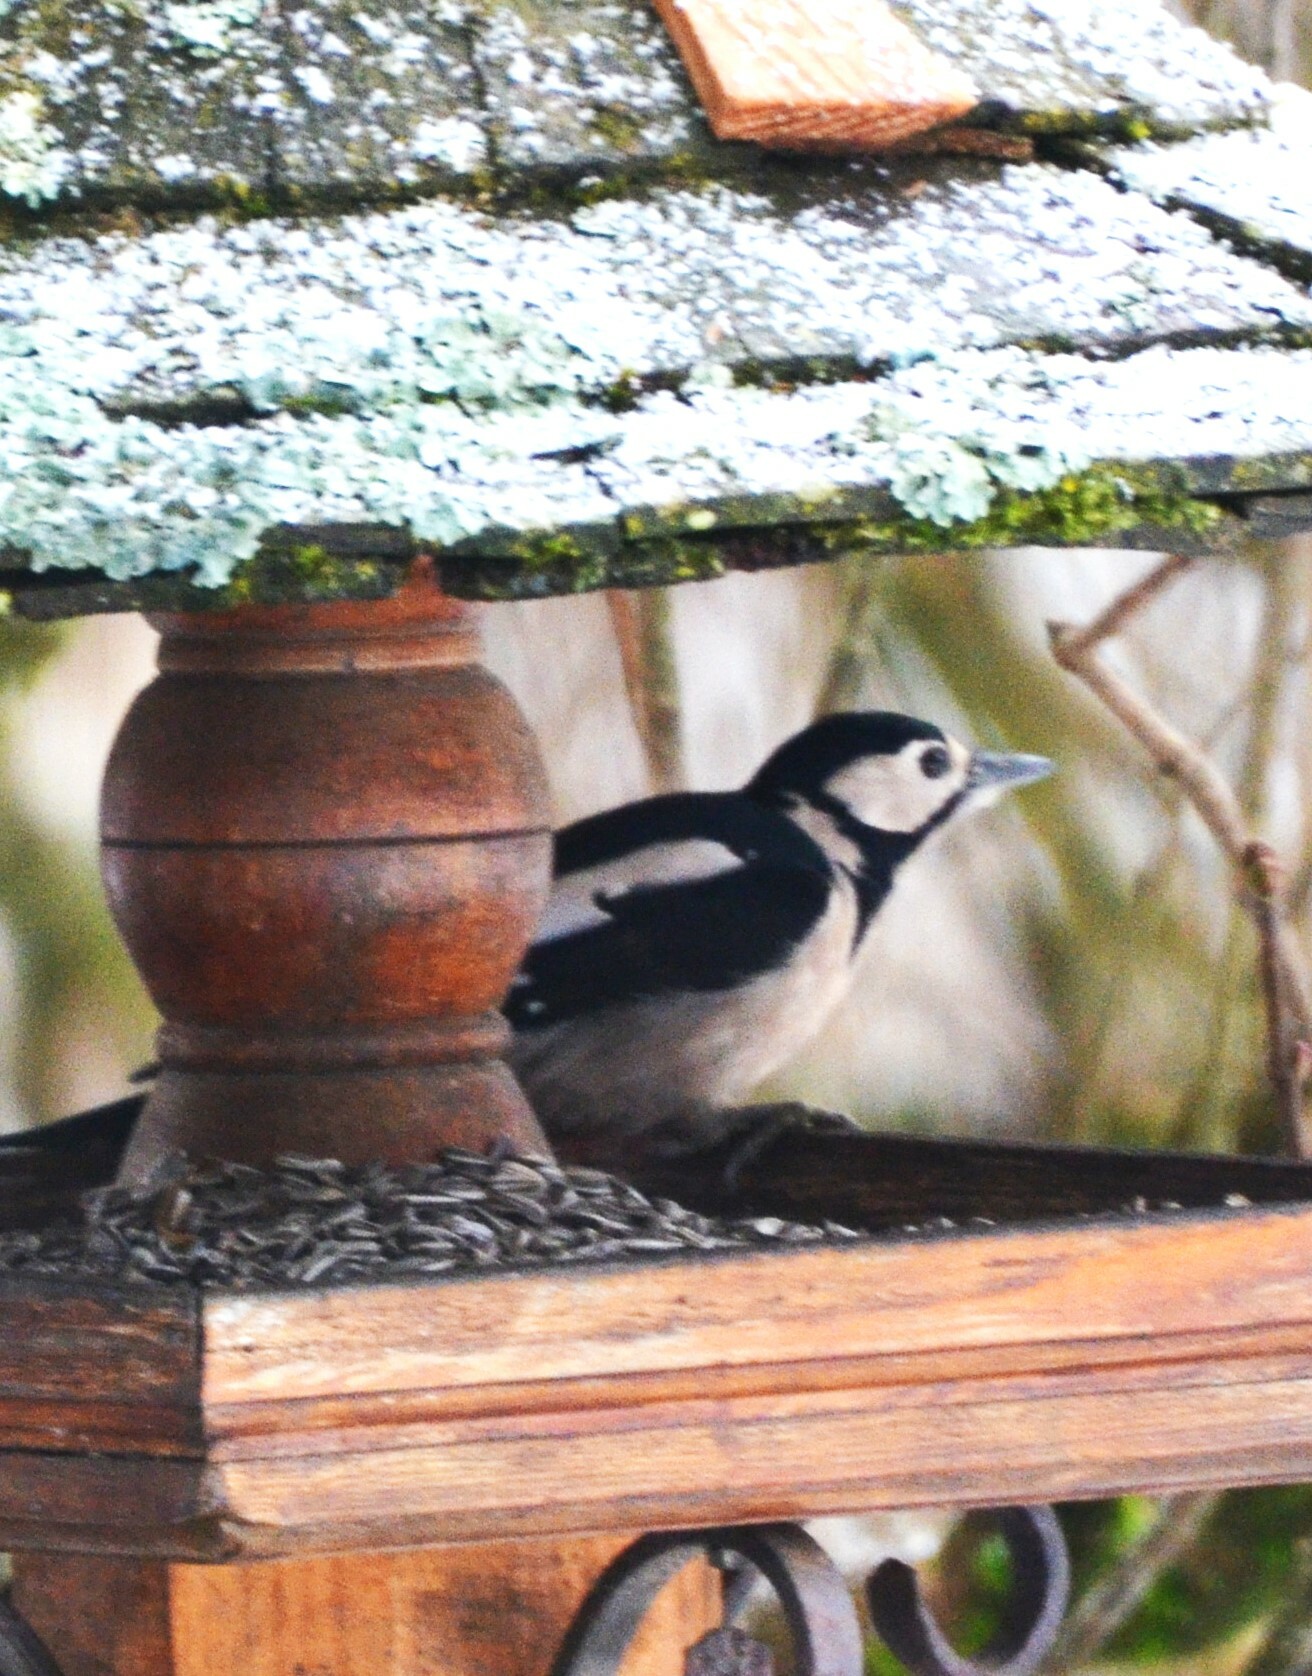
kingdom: Animalia
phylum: Chordata
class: Aves
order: Piciformes
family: Picidae
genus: Dendrocopos
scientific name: Dendrocopos major
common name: Great spotted woodpecker
